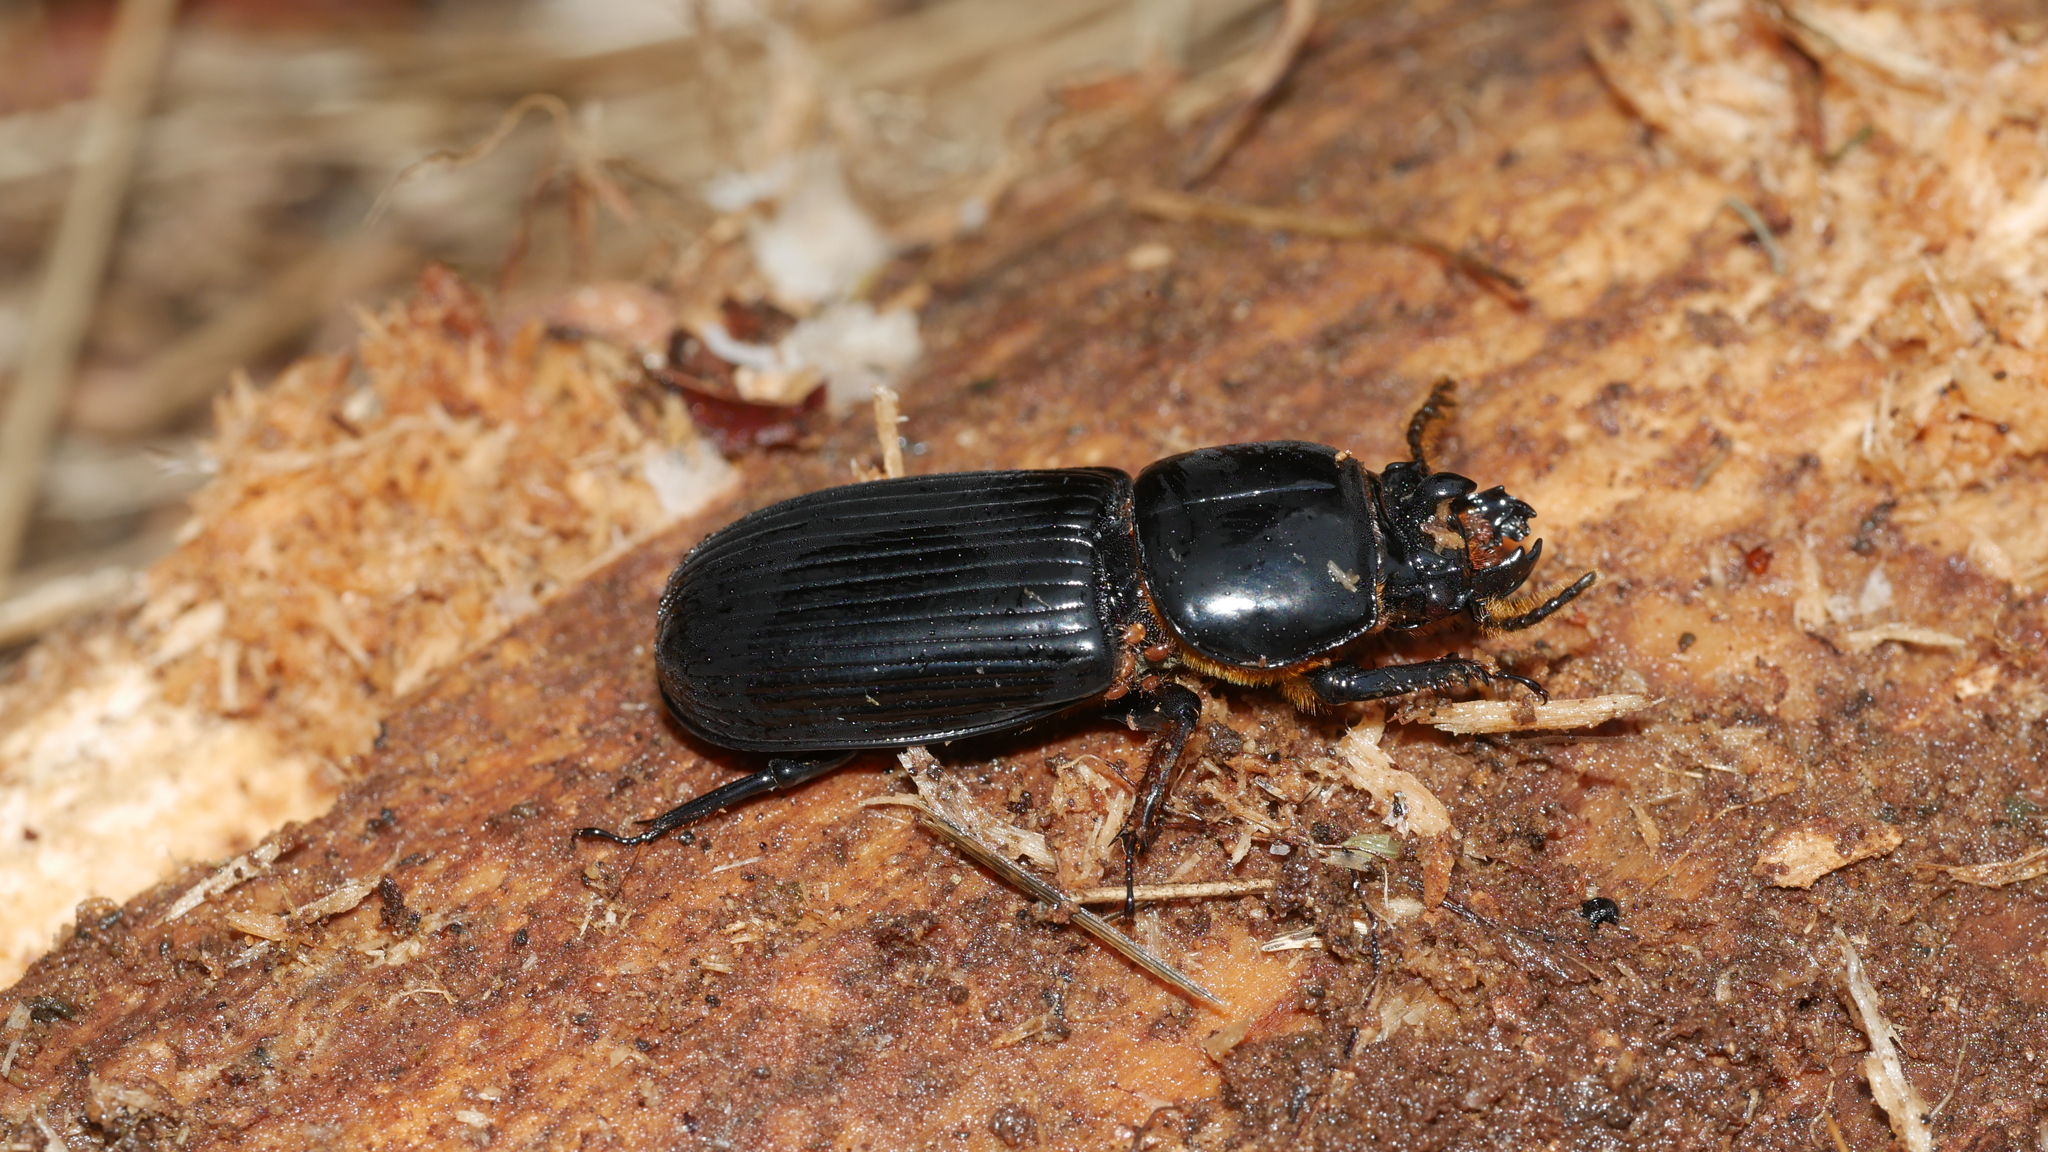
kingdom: Animalia
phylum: Arthropoda
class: Insecta
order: Coleoptera
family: Passalidae
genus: Odontotaenius
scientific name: Odontotaenius disjunctus
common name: Patent leather beetle
